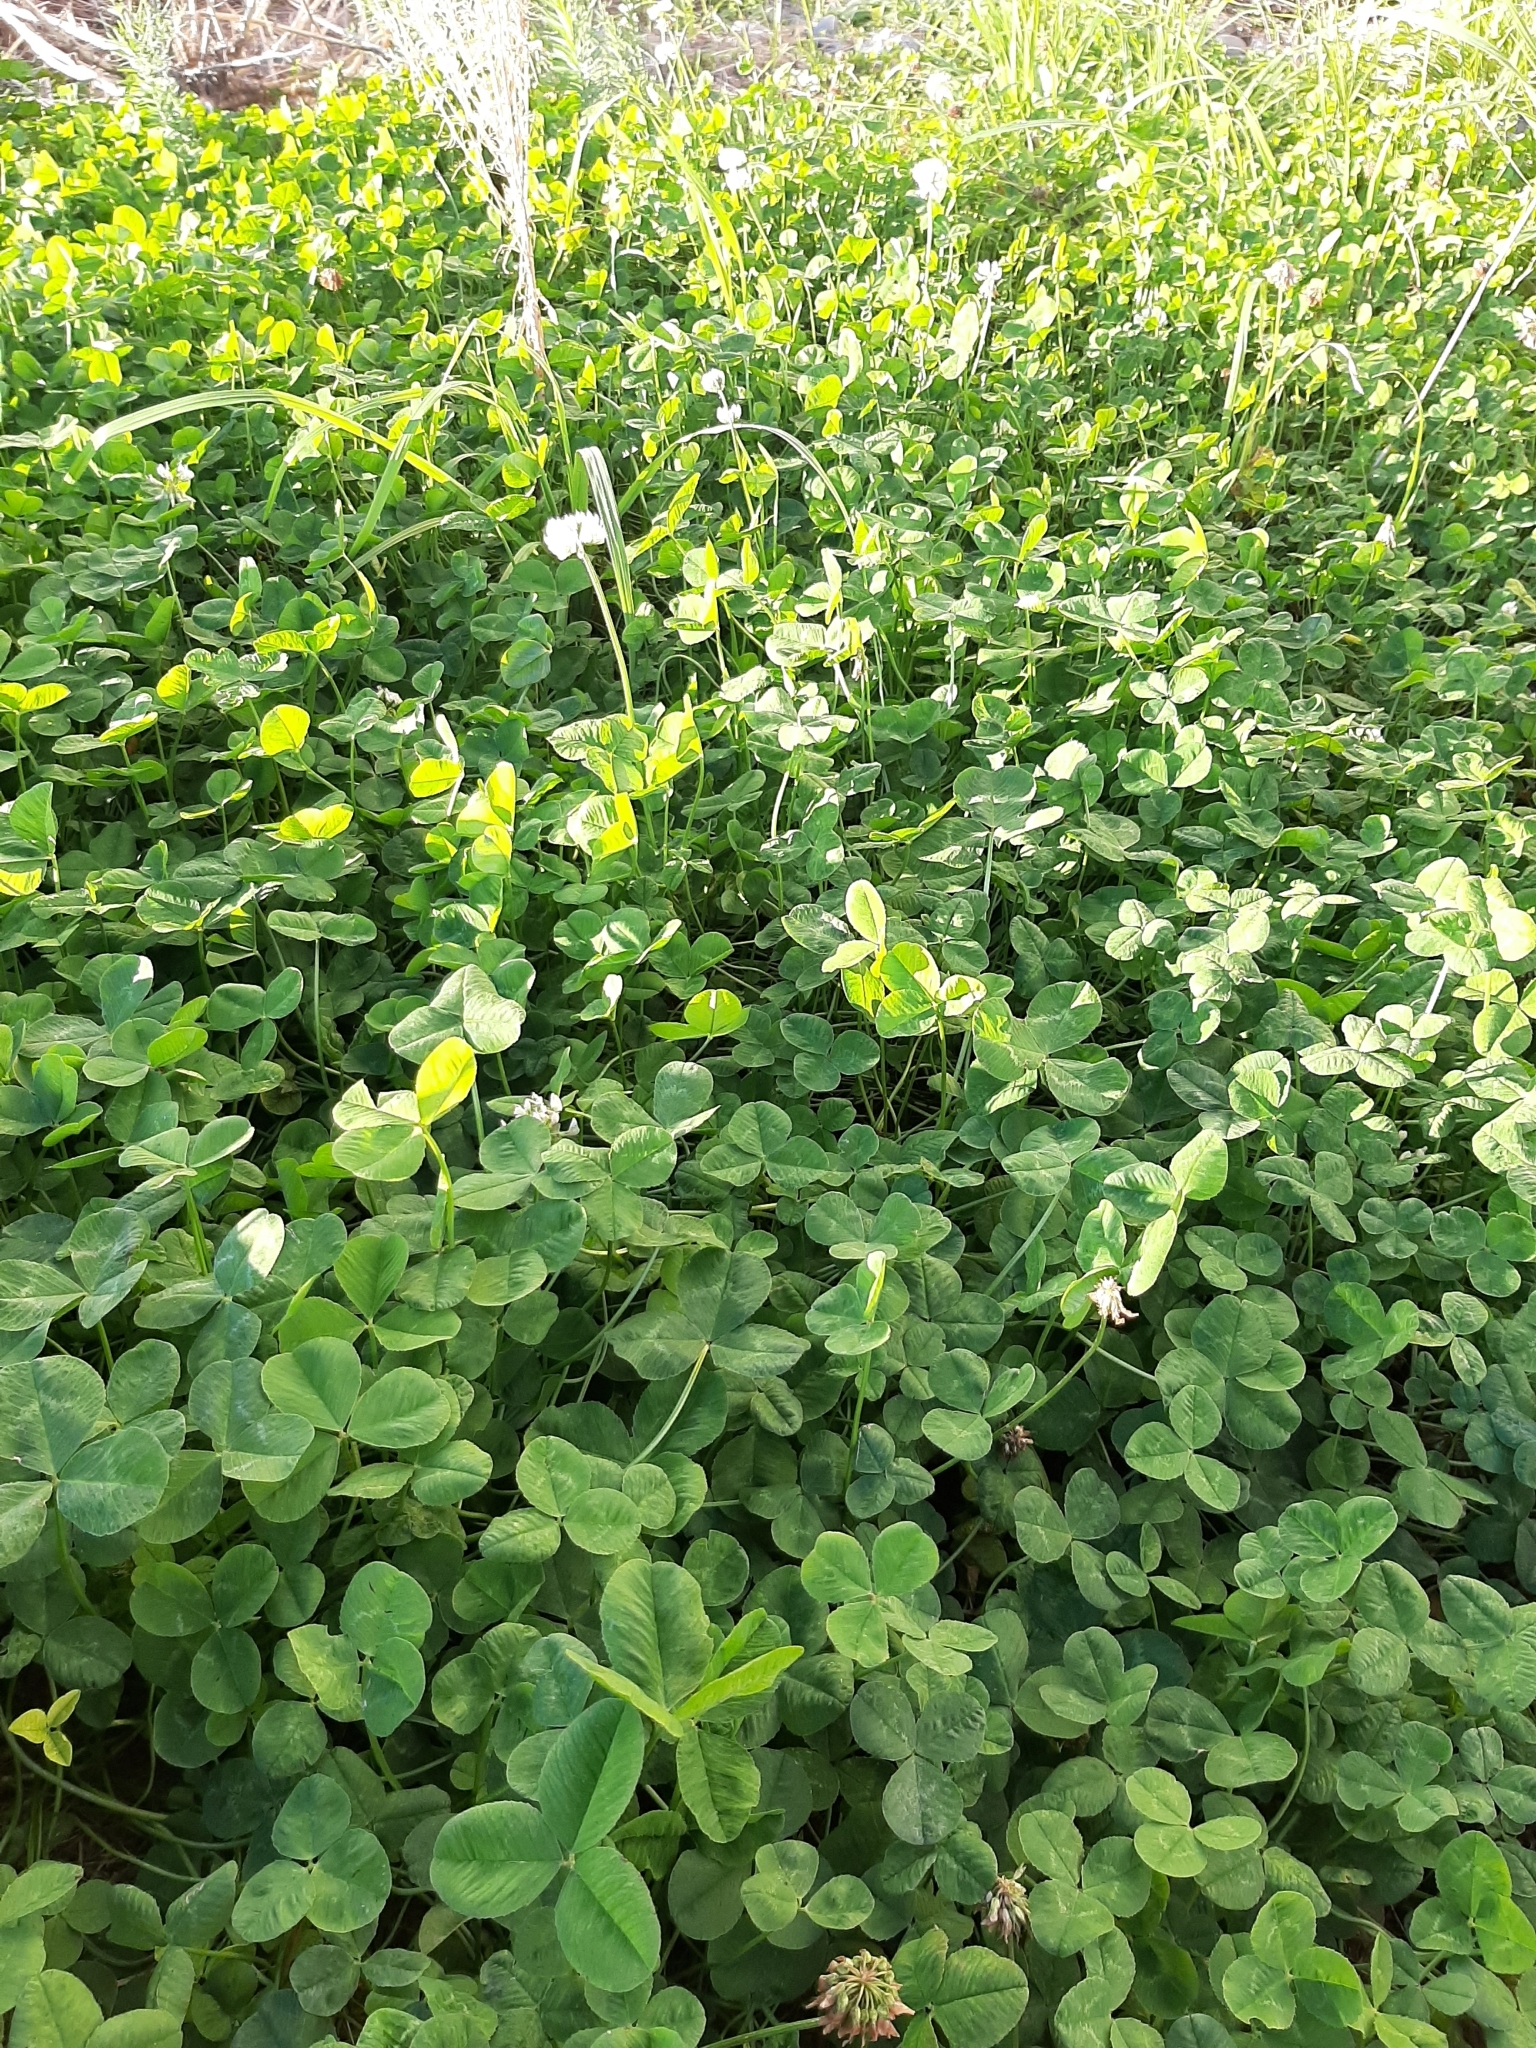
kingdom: Plantae
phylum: Tracheophyta
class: Magnoliopsida
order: Fabales
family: Fabaceae
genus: Trifolium
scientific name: Trifolium repens
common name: White clover
